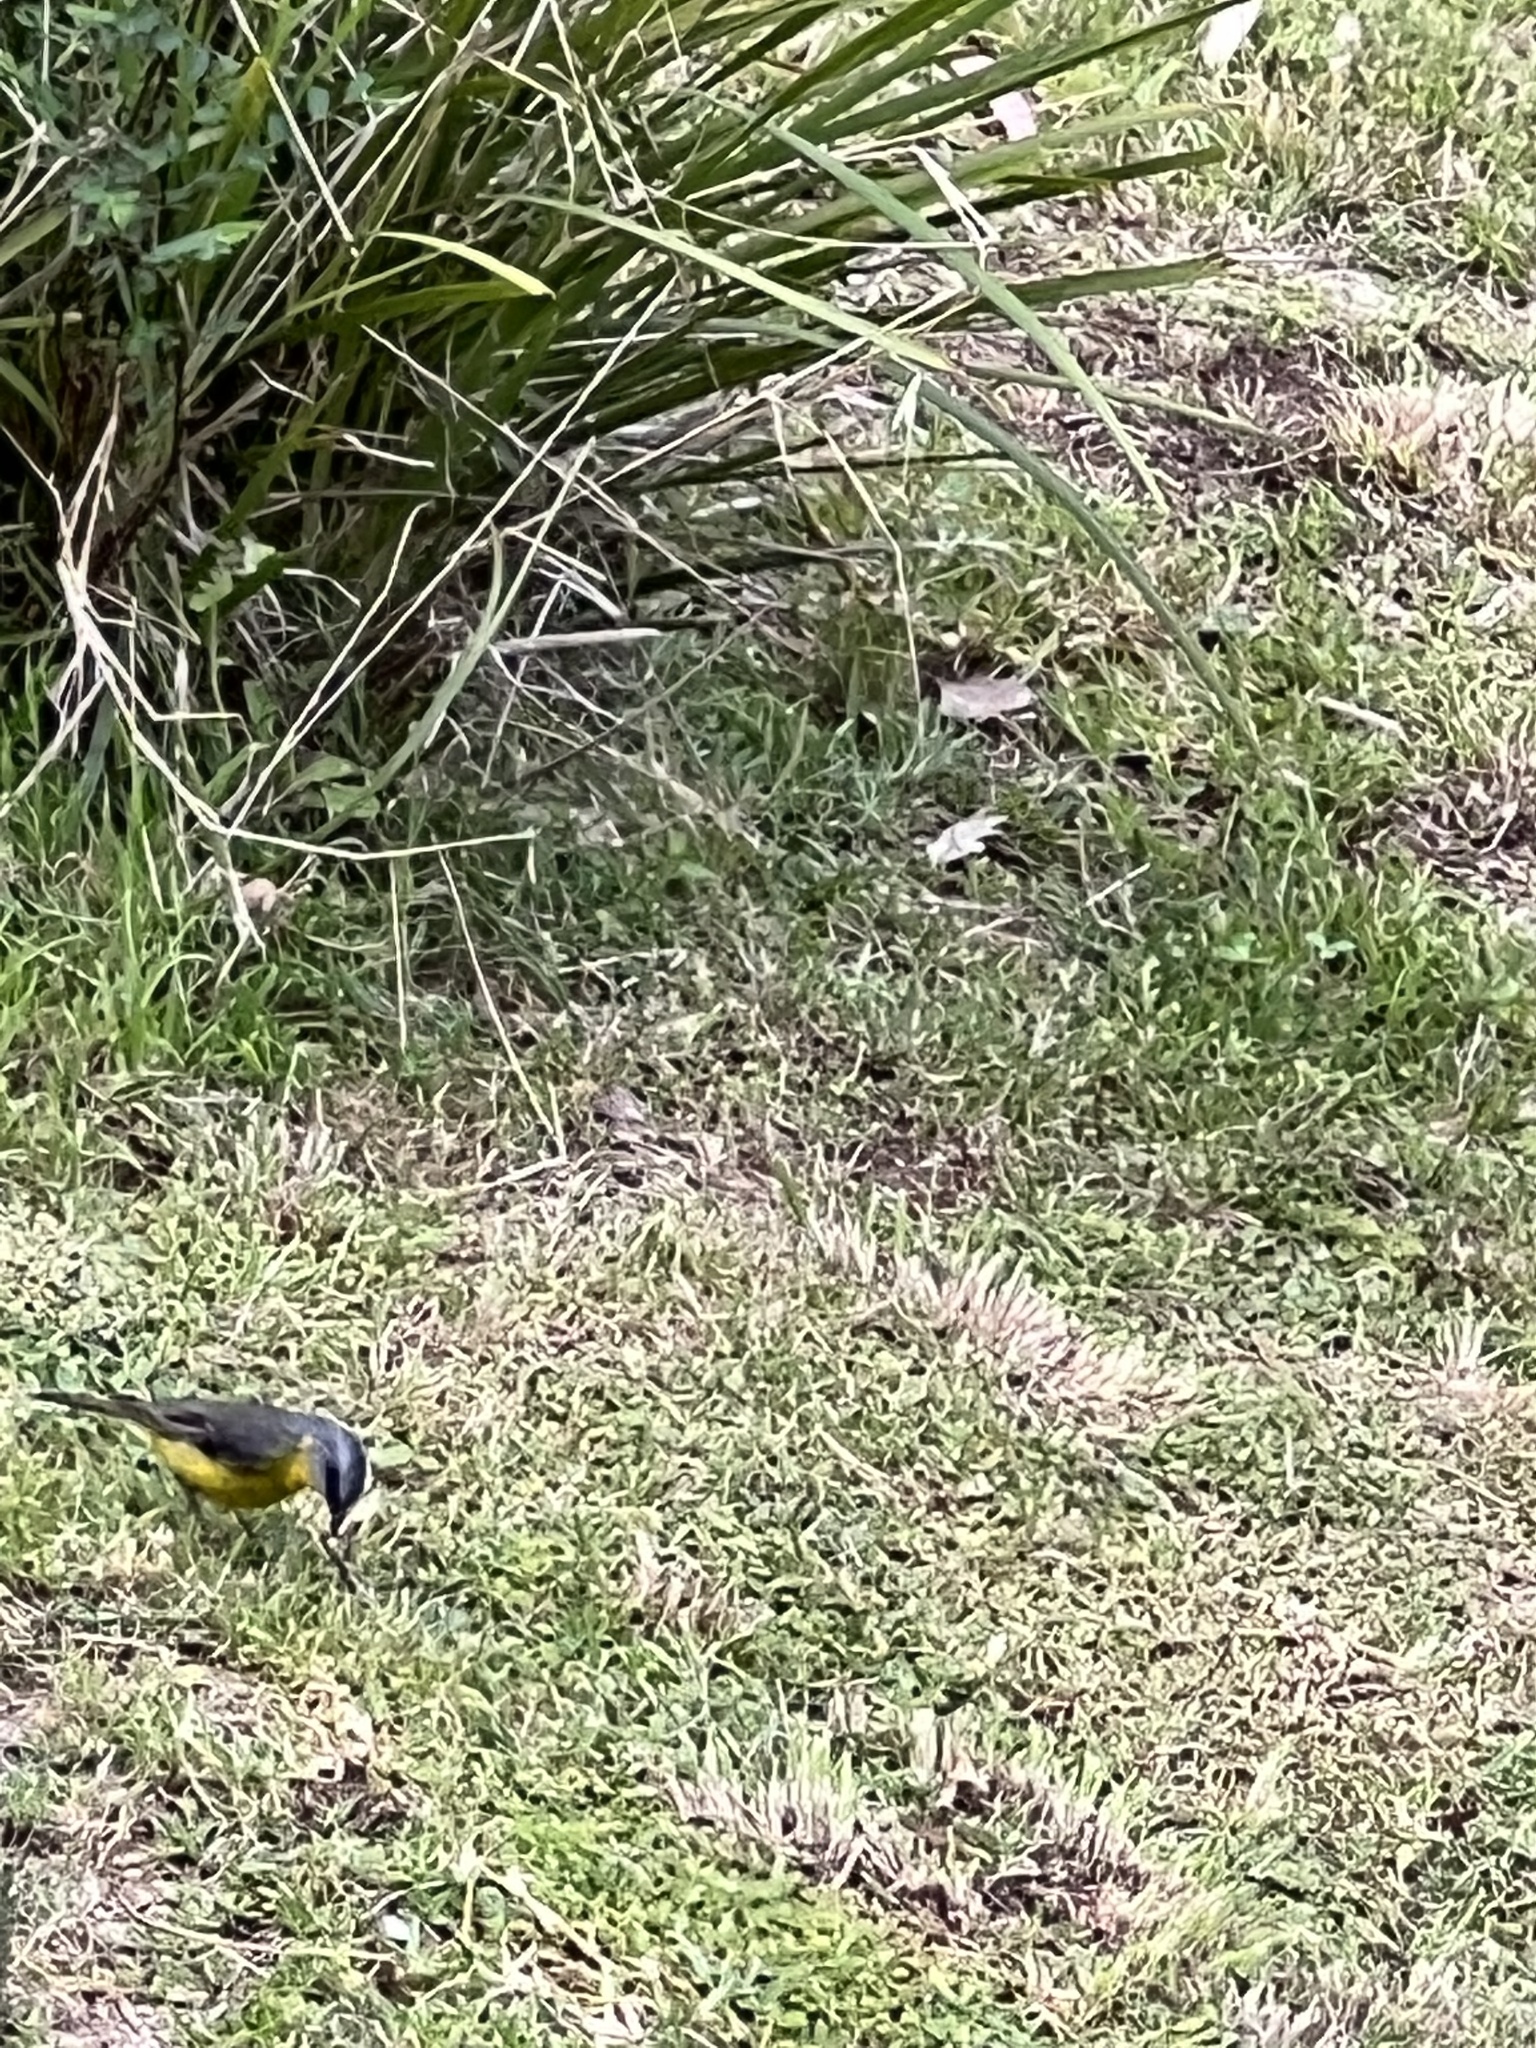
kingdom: Animalia
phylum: Chordata
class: Aves
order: Passeriformes
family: Petroicidae
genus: Eopsaltria
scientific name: Eopsaltria australis
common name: Eastern yellow robin
